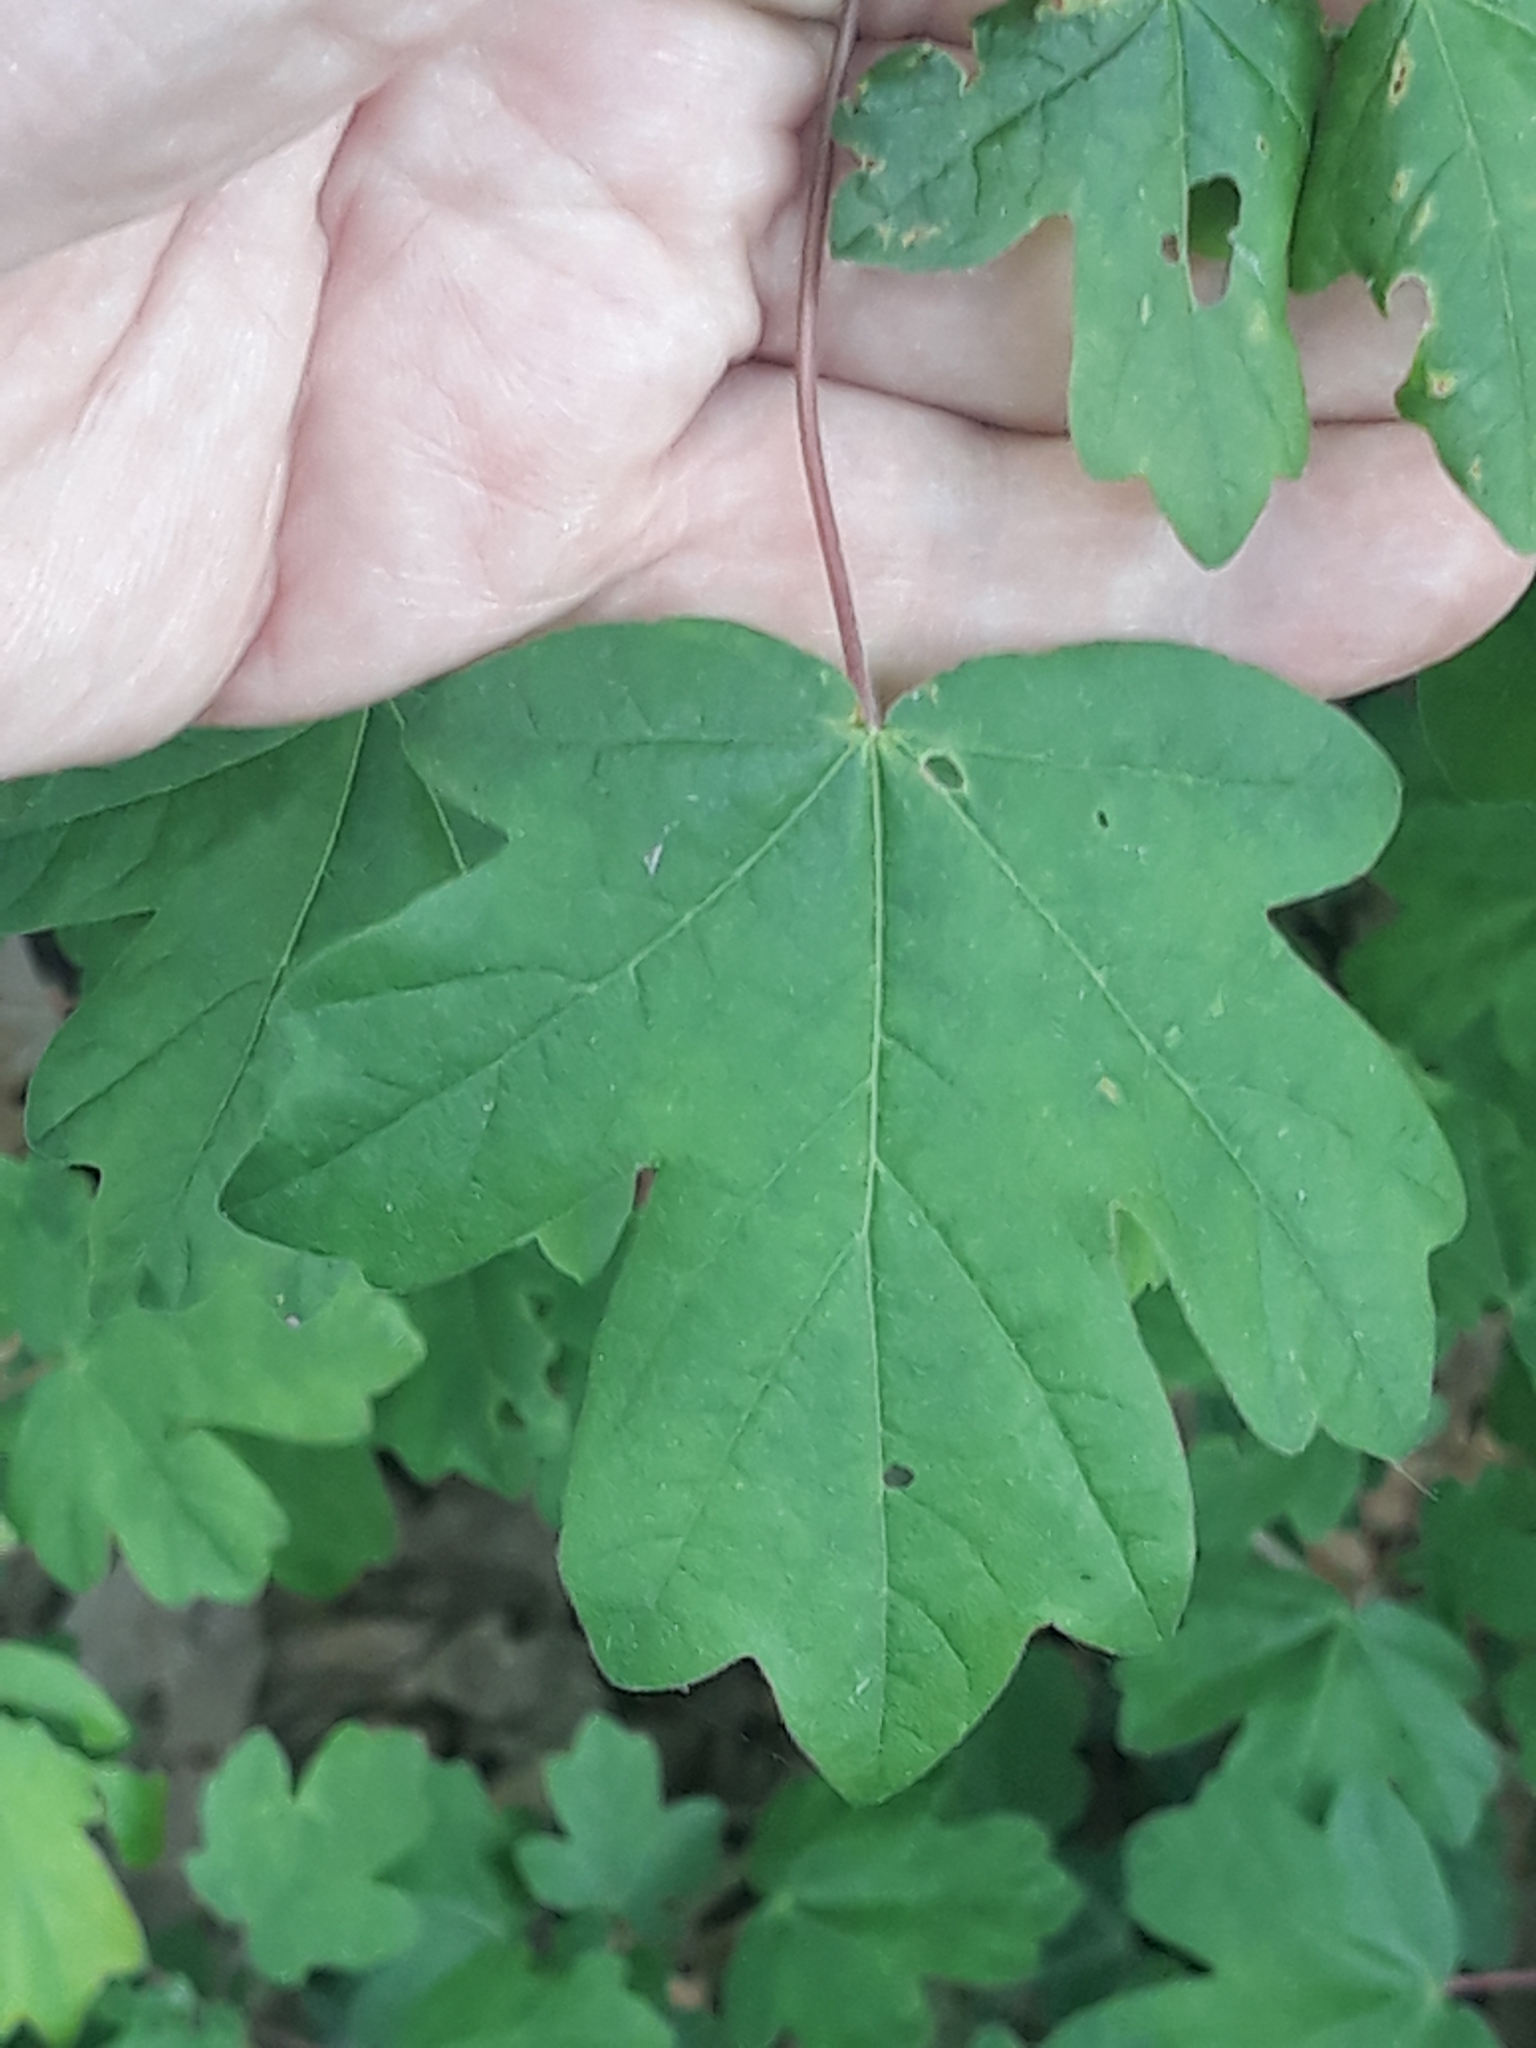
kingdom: Plantae
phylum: Tracheophyta
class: Magnoliopsida
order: Sapindales
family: Sapindaceae
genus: Acer
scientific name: Acer campestre
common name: Field maple
